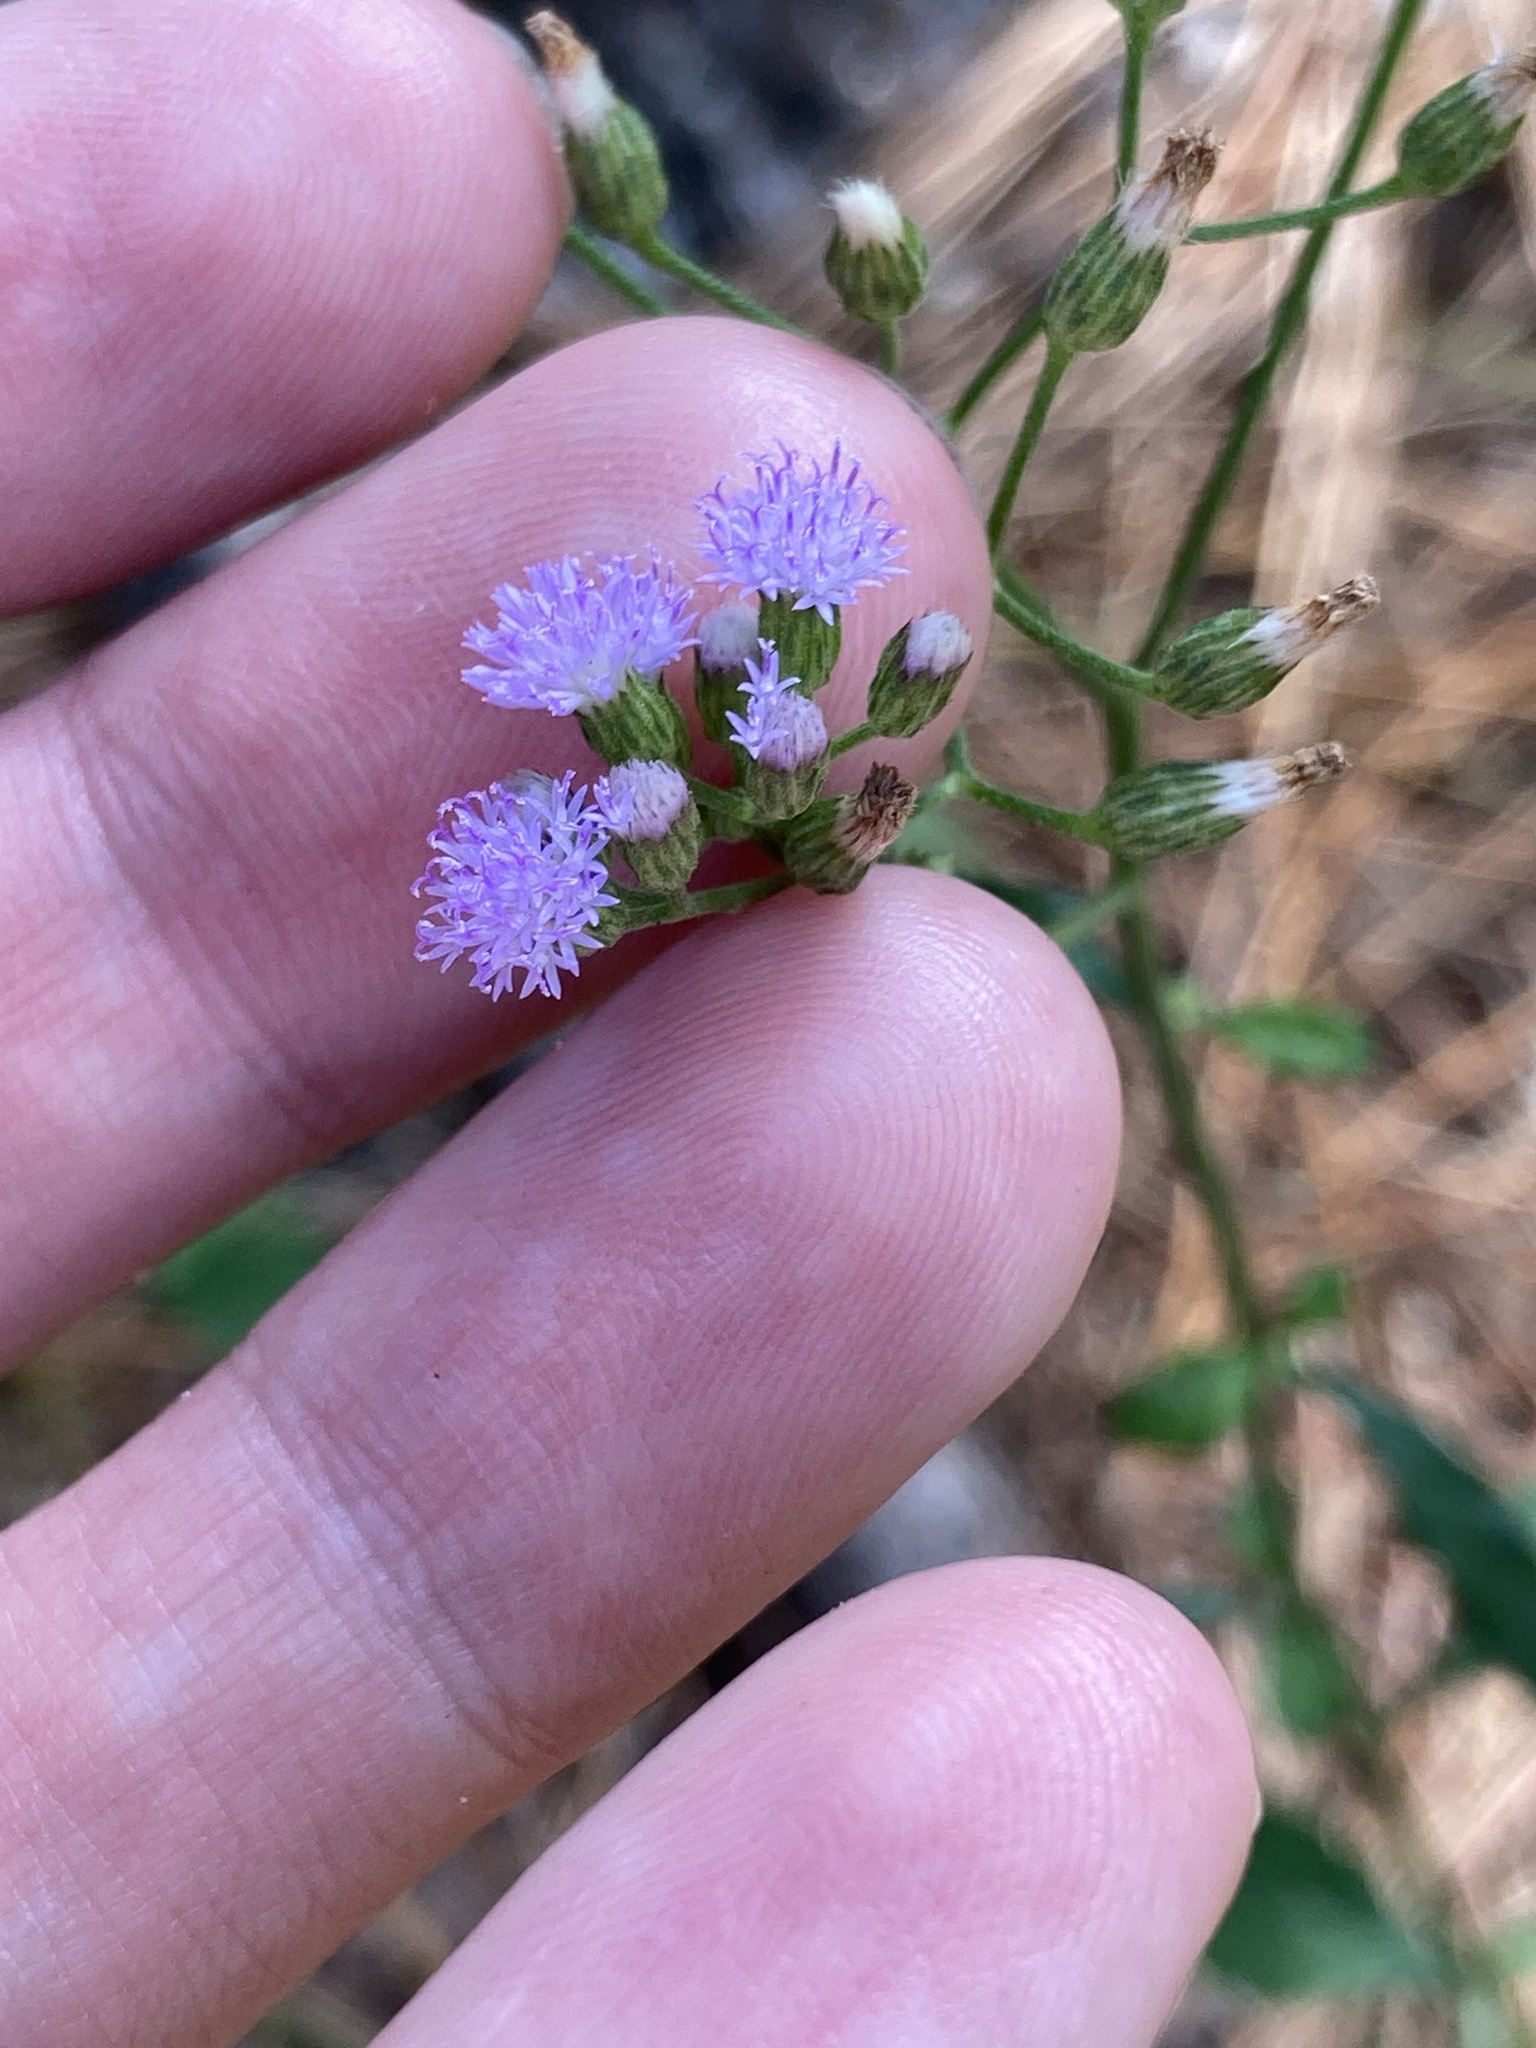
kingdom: Plantae
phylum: Tracheophyta
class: Magnoliopsida
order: Asterales
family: Asteraceae
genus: Cyanthillium
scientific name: Cyanthillium cinereum
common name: Little ironweed
